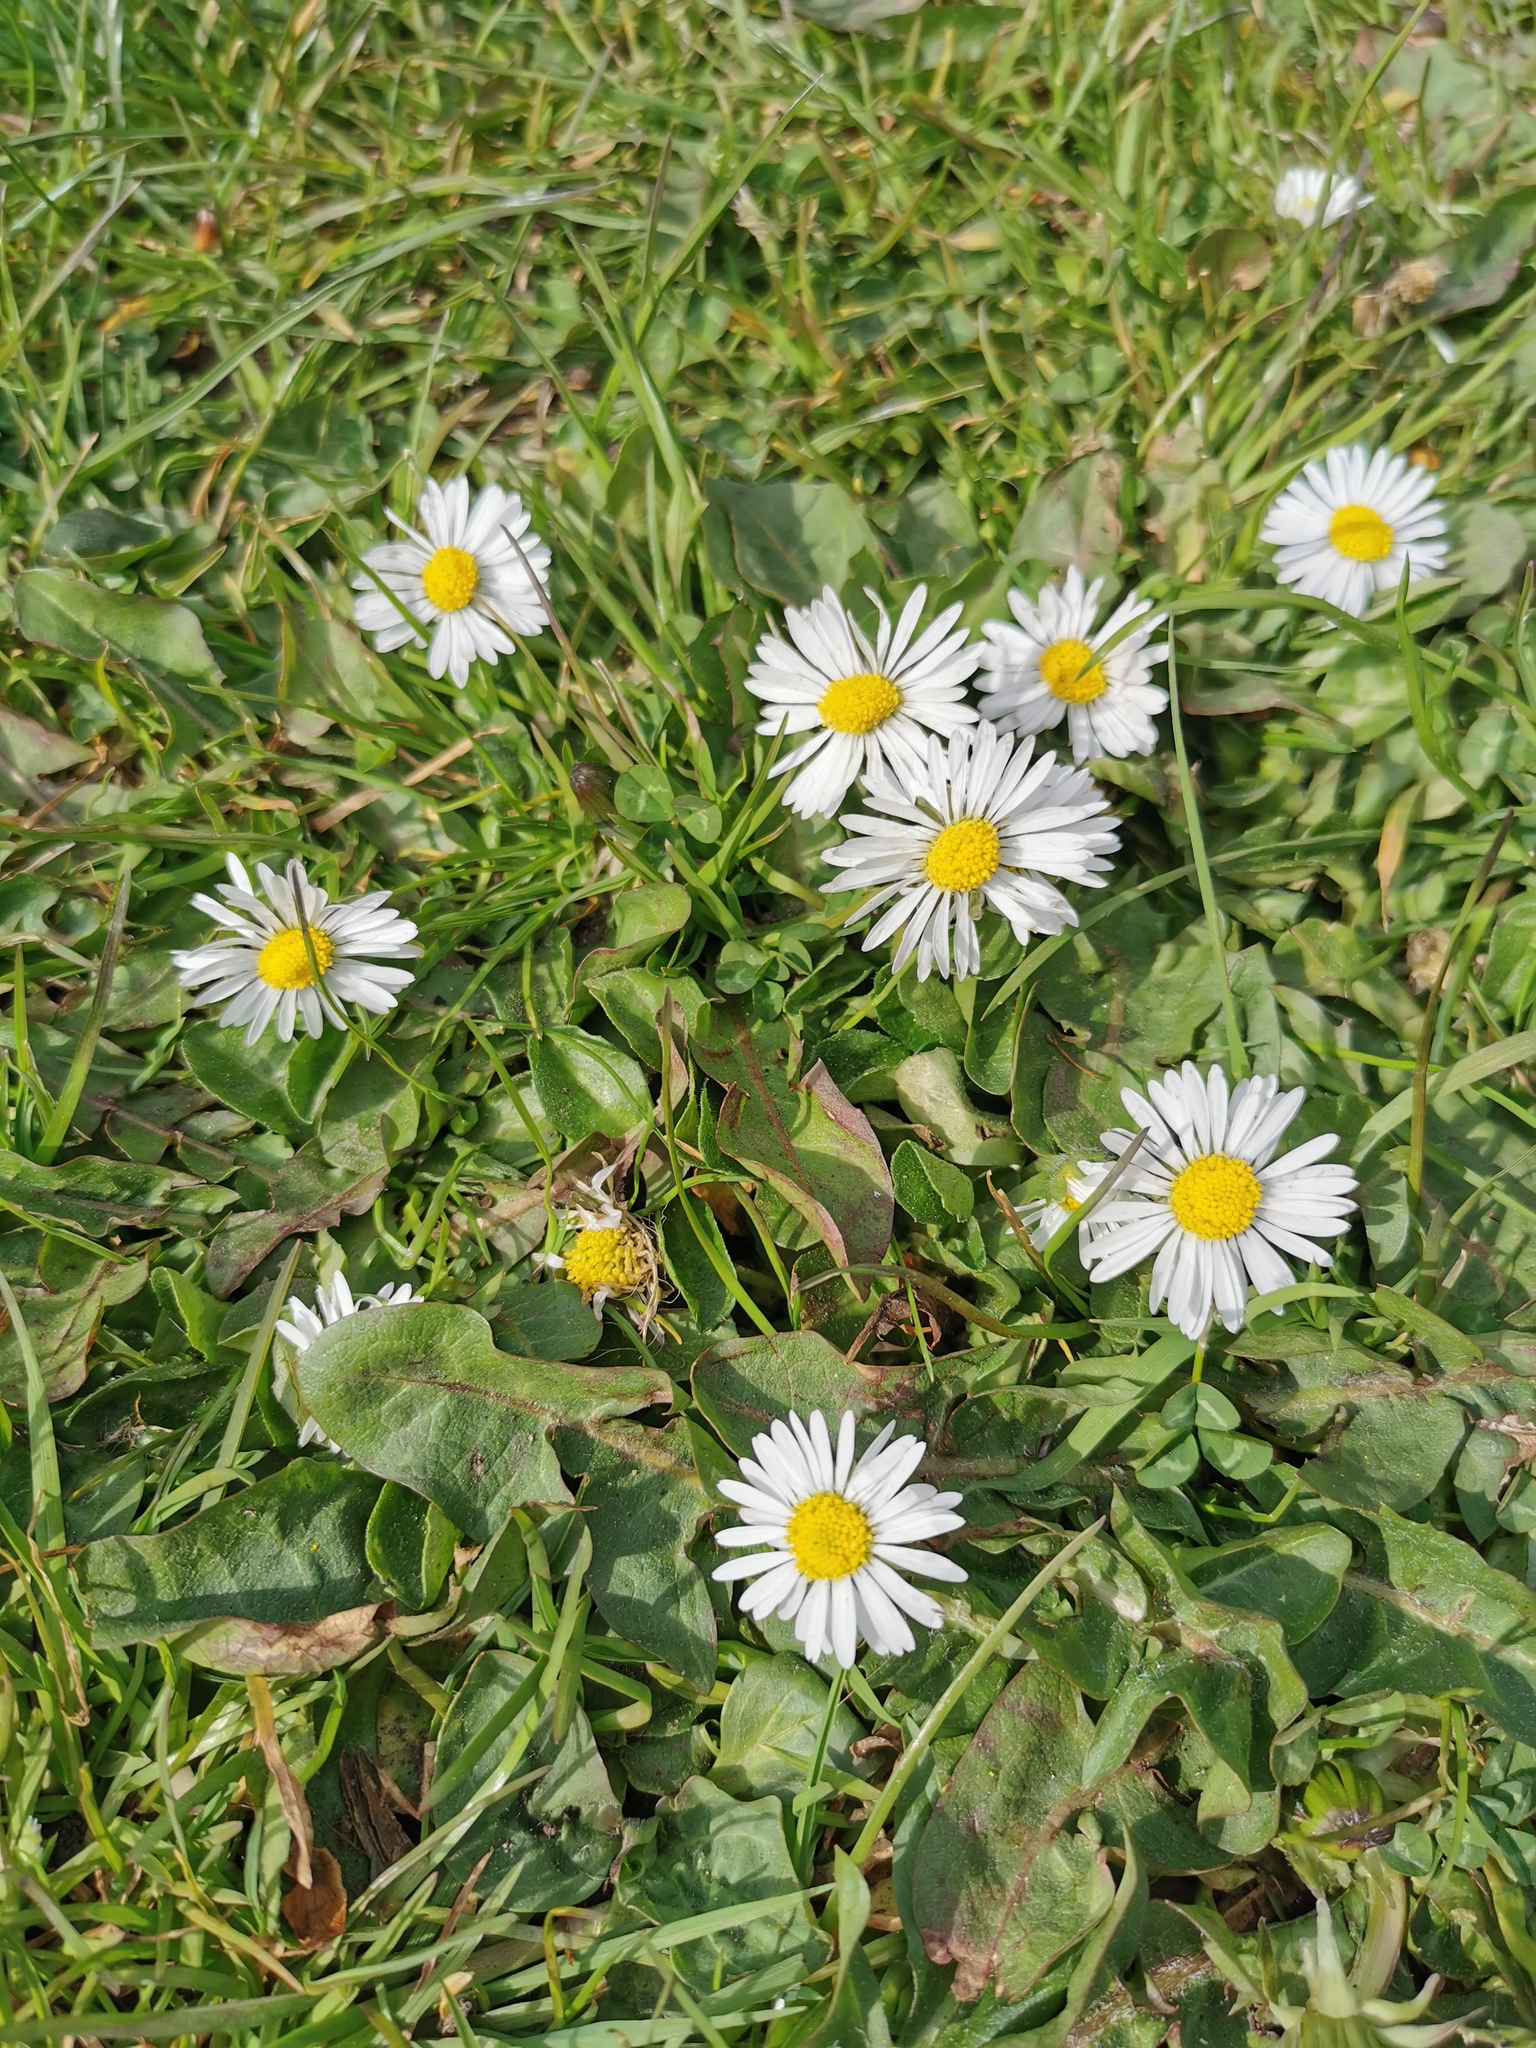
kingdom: Plantae
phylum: Tracheophyta
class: Magnoliopsida
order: Asterales
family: Asteraceae
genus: Bellis
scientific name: Bellis perennis
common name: Lawndaisy
